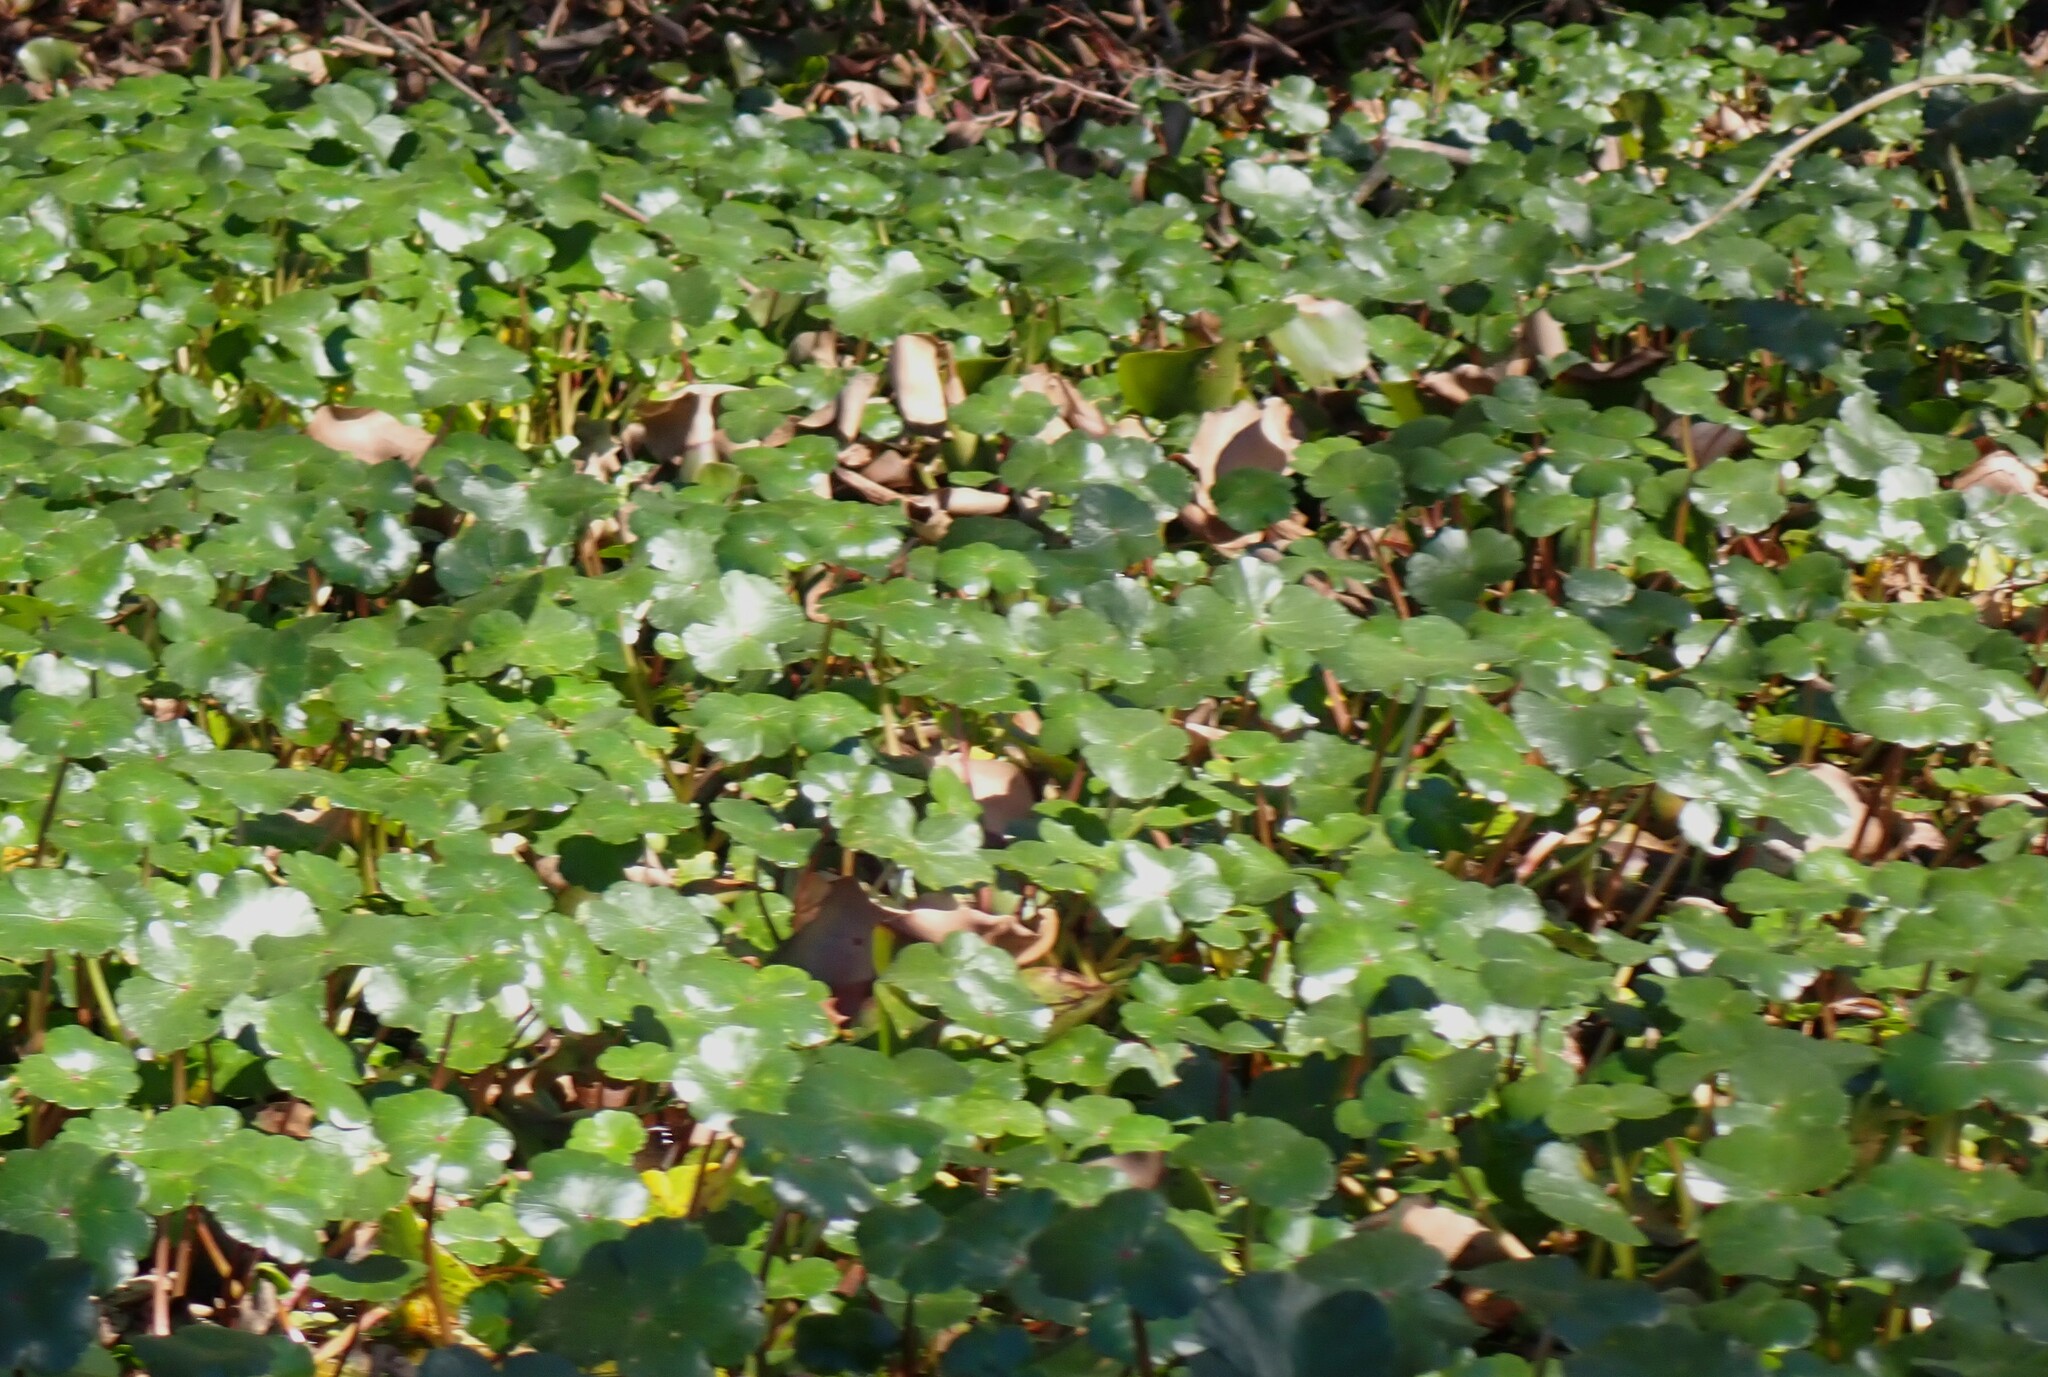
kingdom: Plantae
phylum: Tracheophyta
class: Magnoliopsida
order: Apiales
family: Araliaceae
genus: Hydrocotyle
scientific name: Hydrocotyle ranunculoides
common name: Floating pennywort
